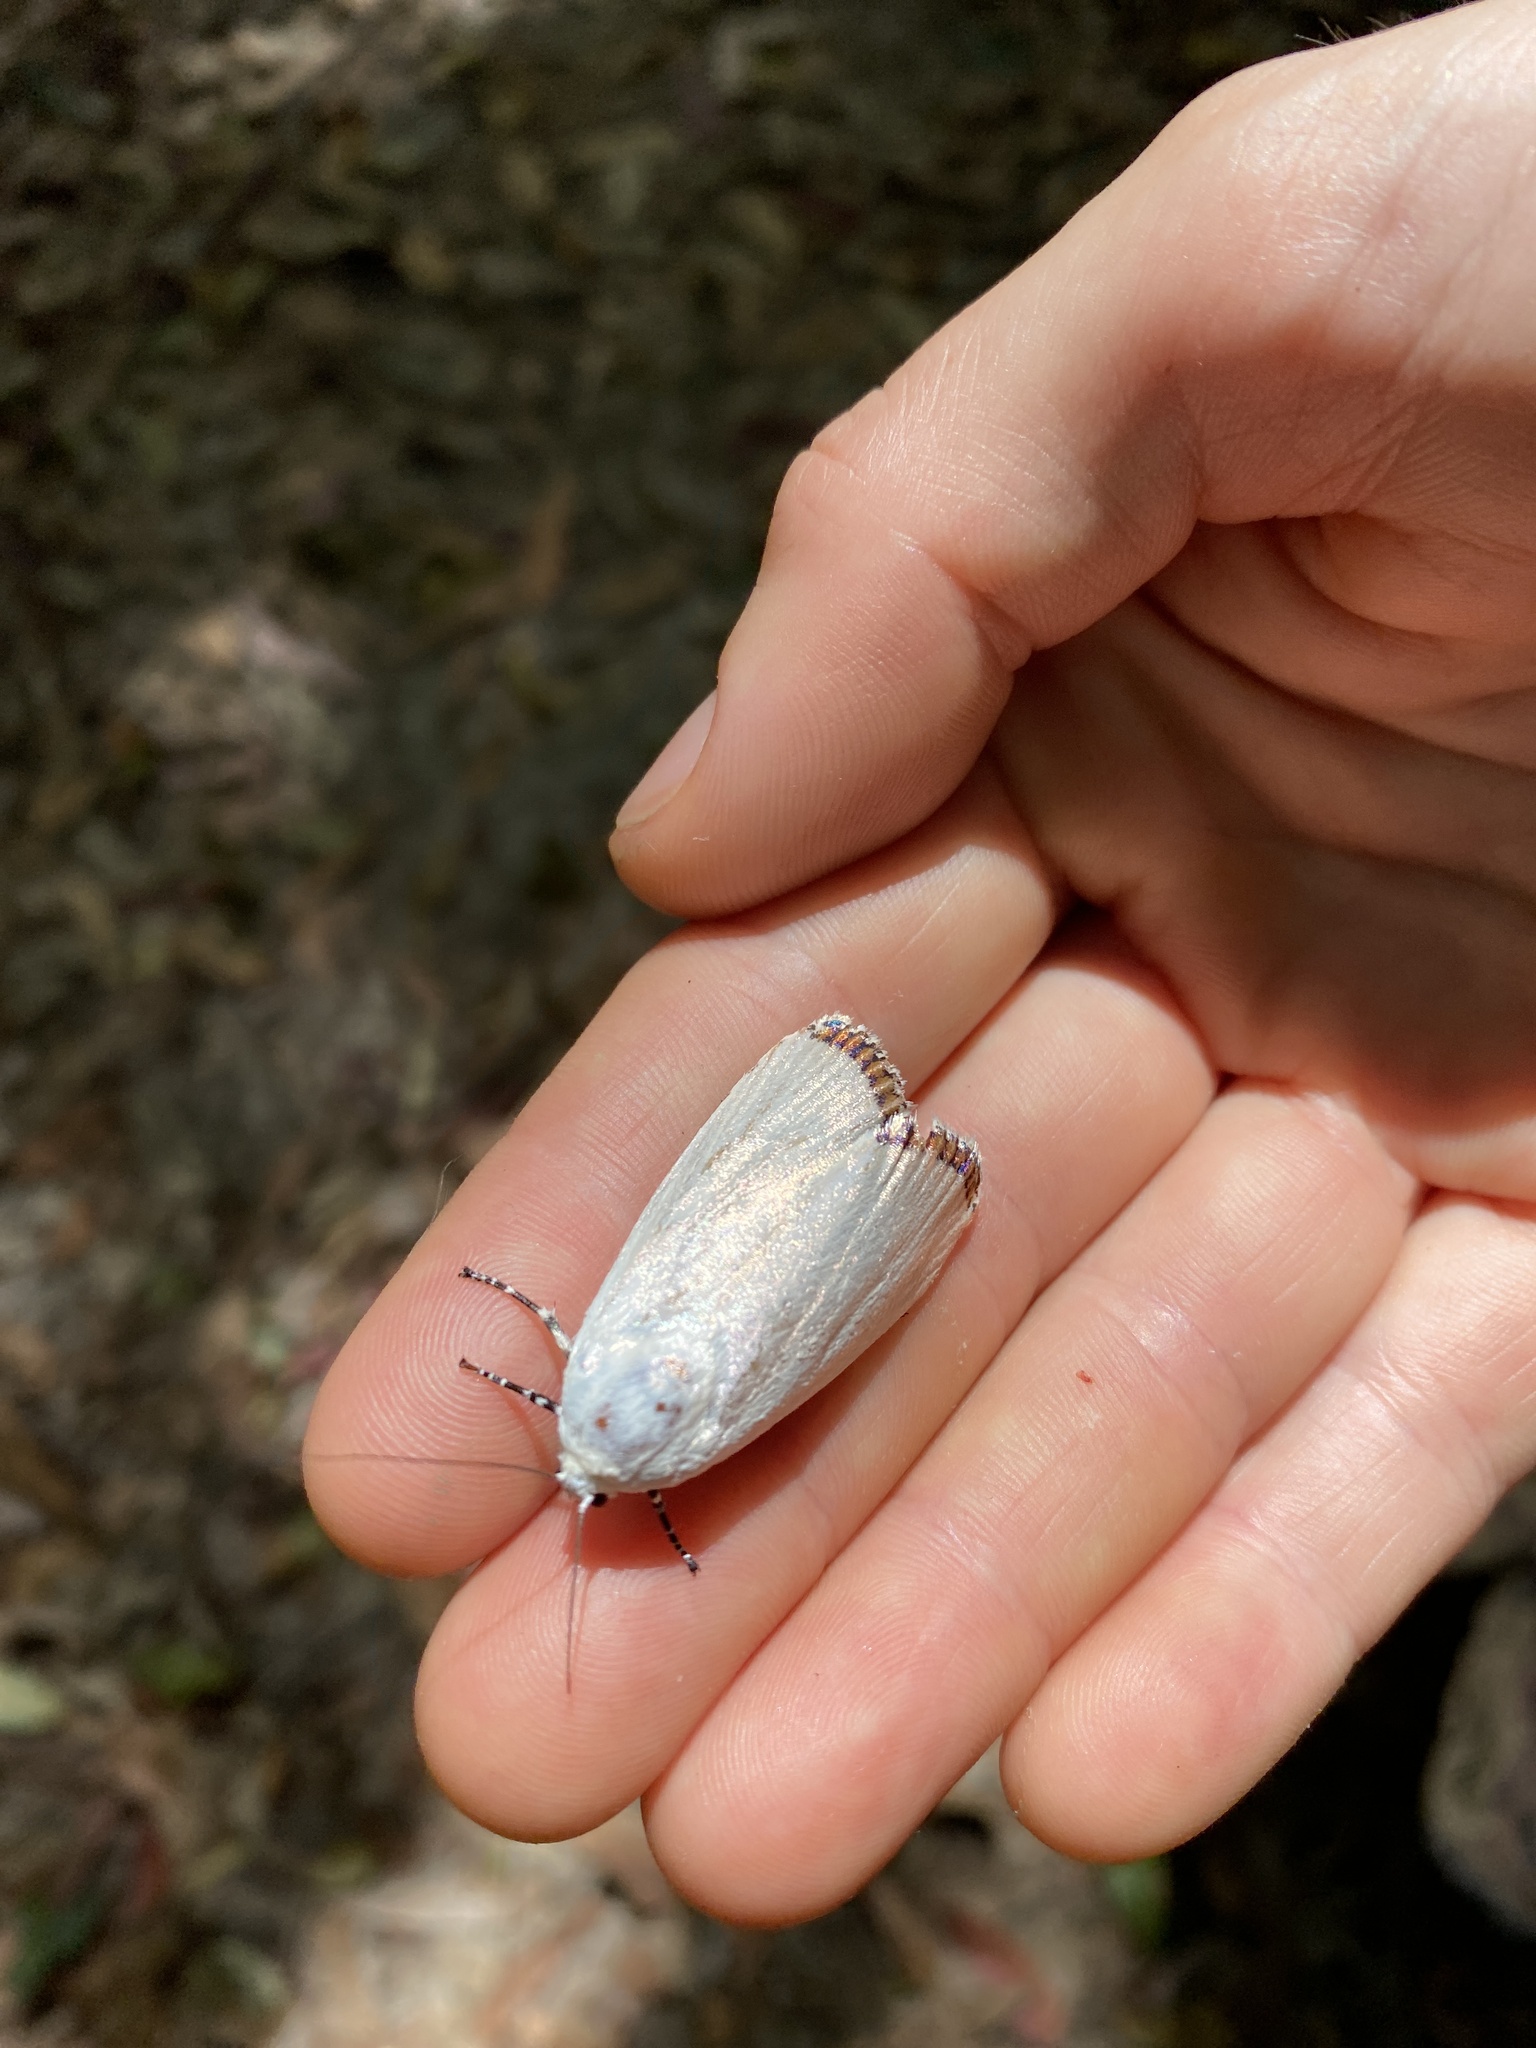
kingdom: Animalia
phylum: Arthropoda
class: Insecta
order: Lepidoptera
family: Xyloryctidae
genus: Thysiarcha
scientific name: Thysiarcha ecclesiastis
